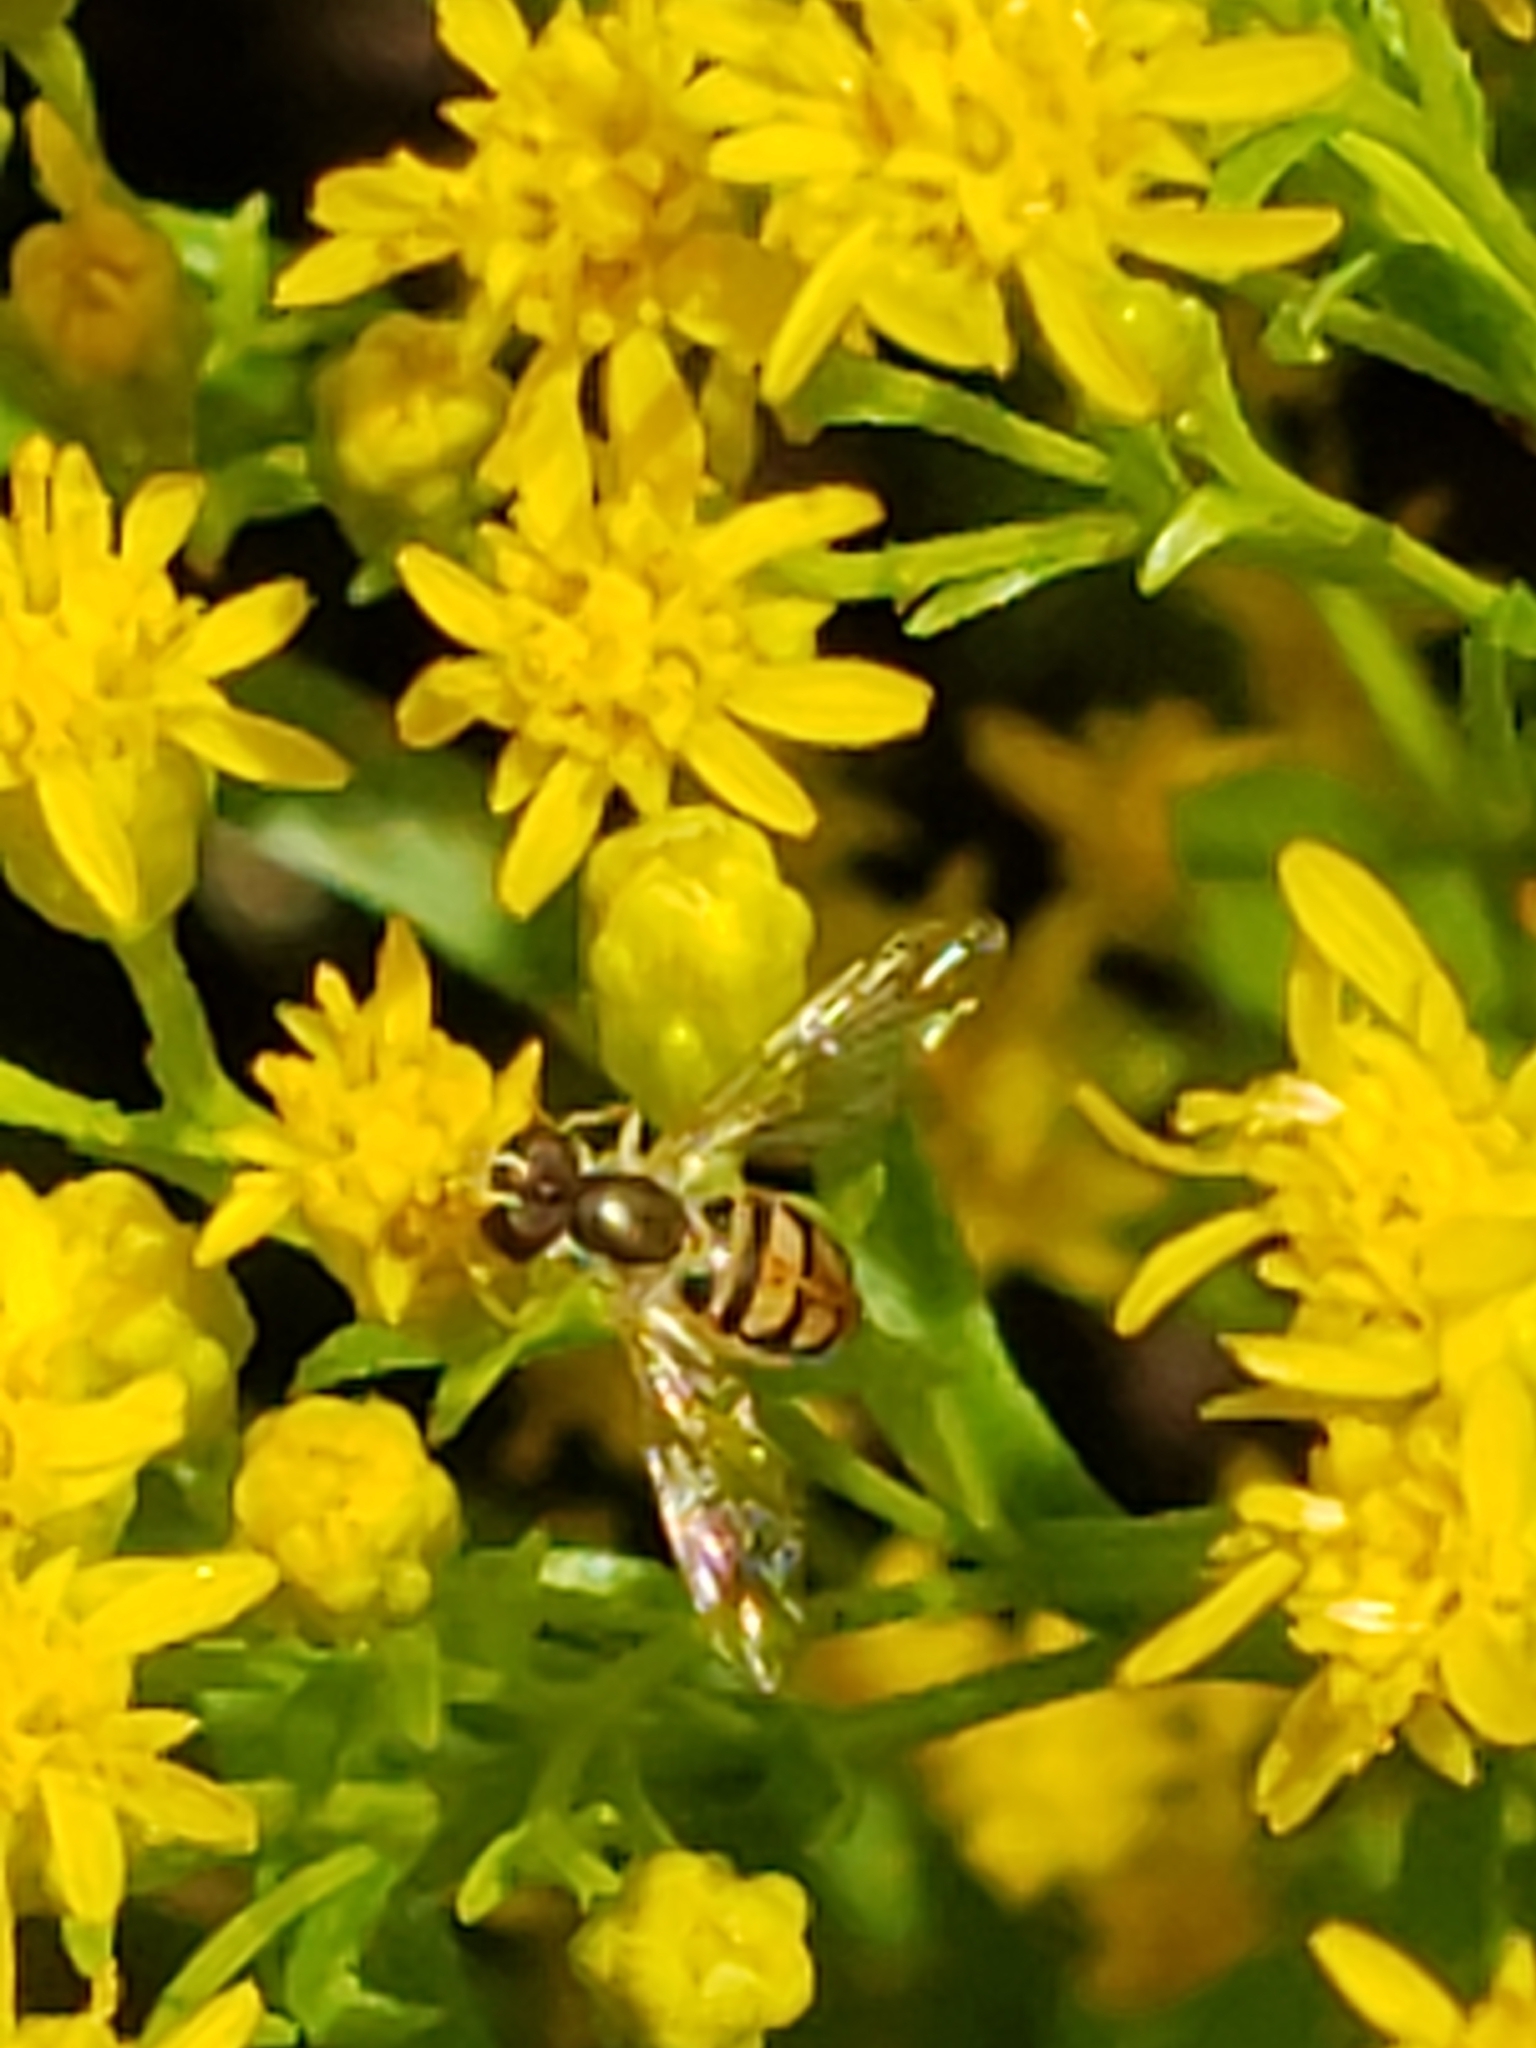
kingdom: Animalia
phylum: Arthropoda
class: Insecta
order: Diptera
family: Syrphidae
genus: Toxomerus
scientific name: Toxomerus marginatus
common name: Syrphid fly
